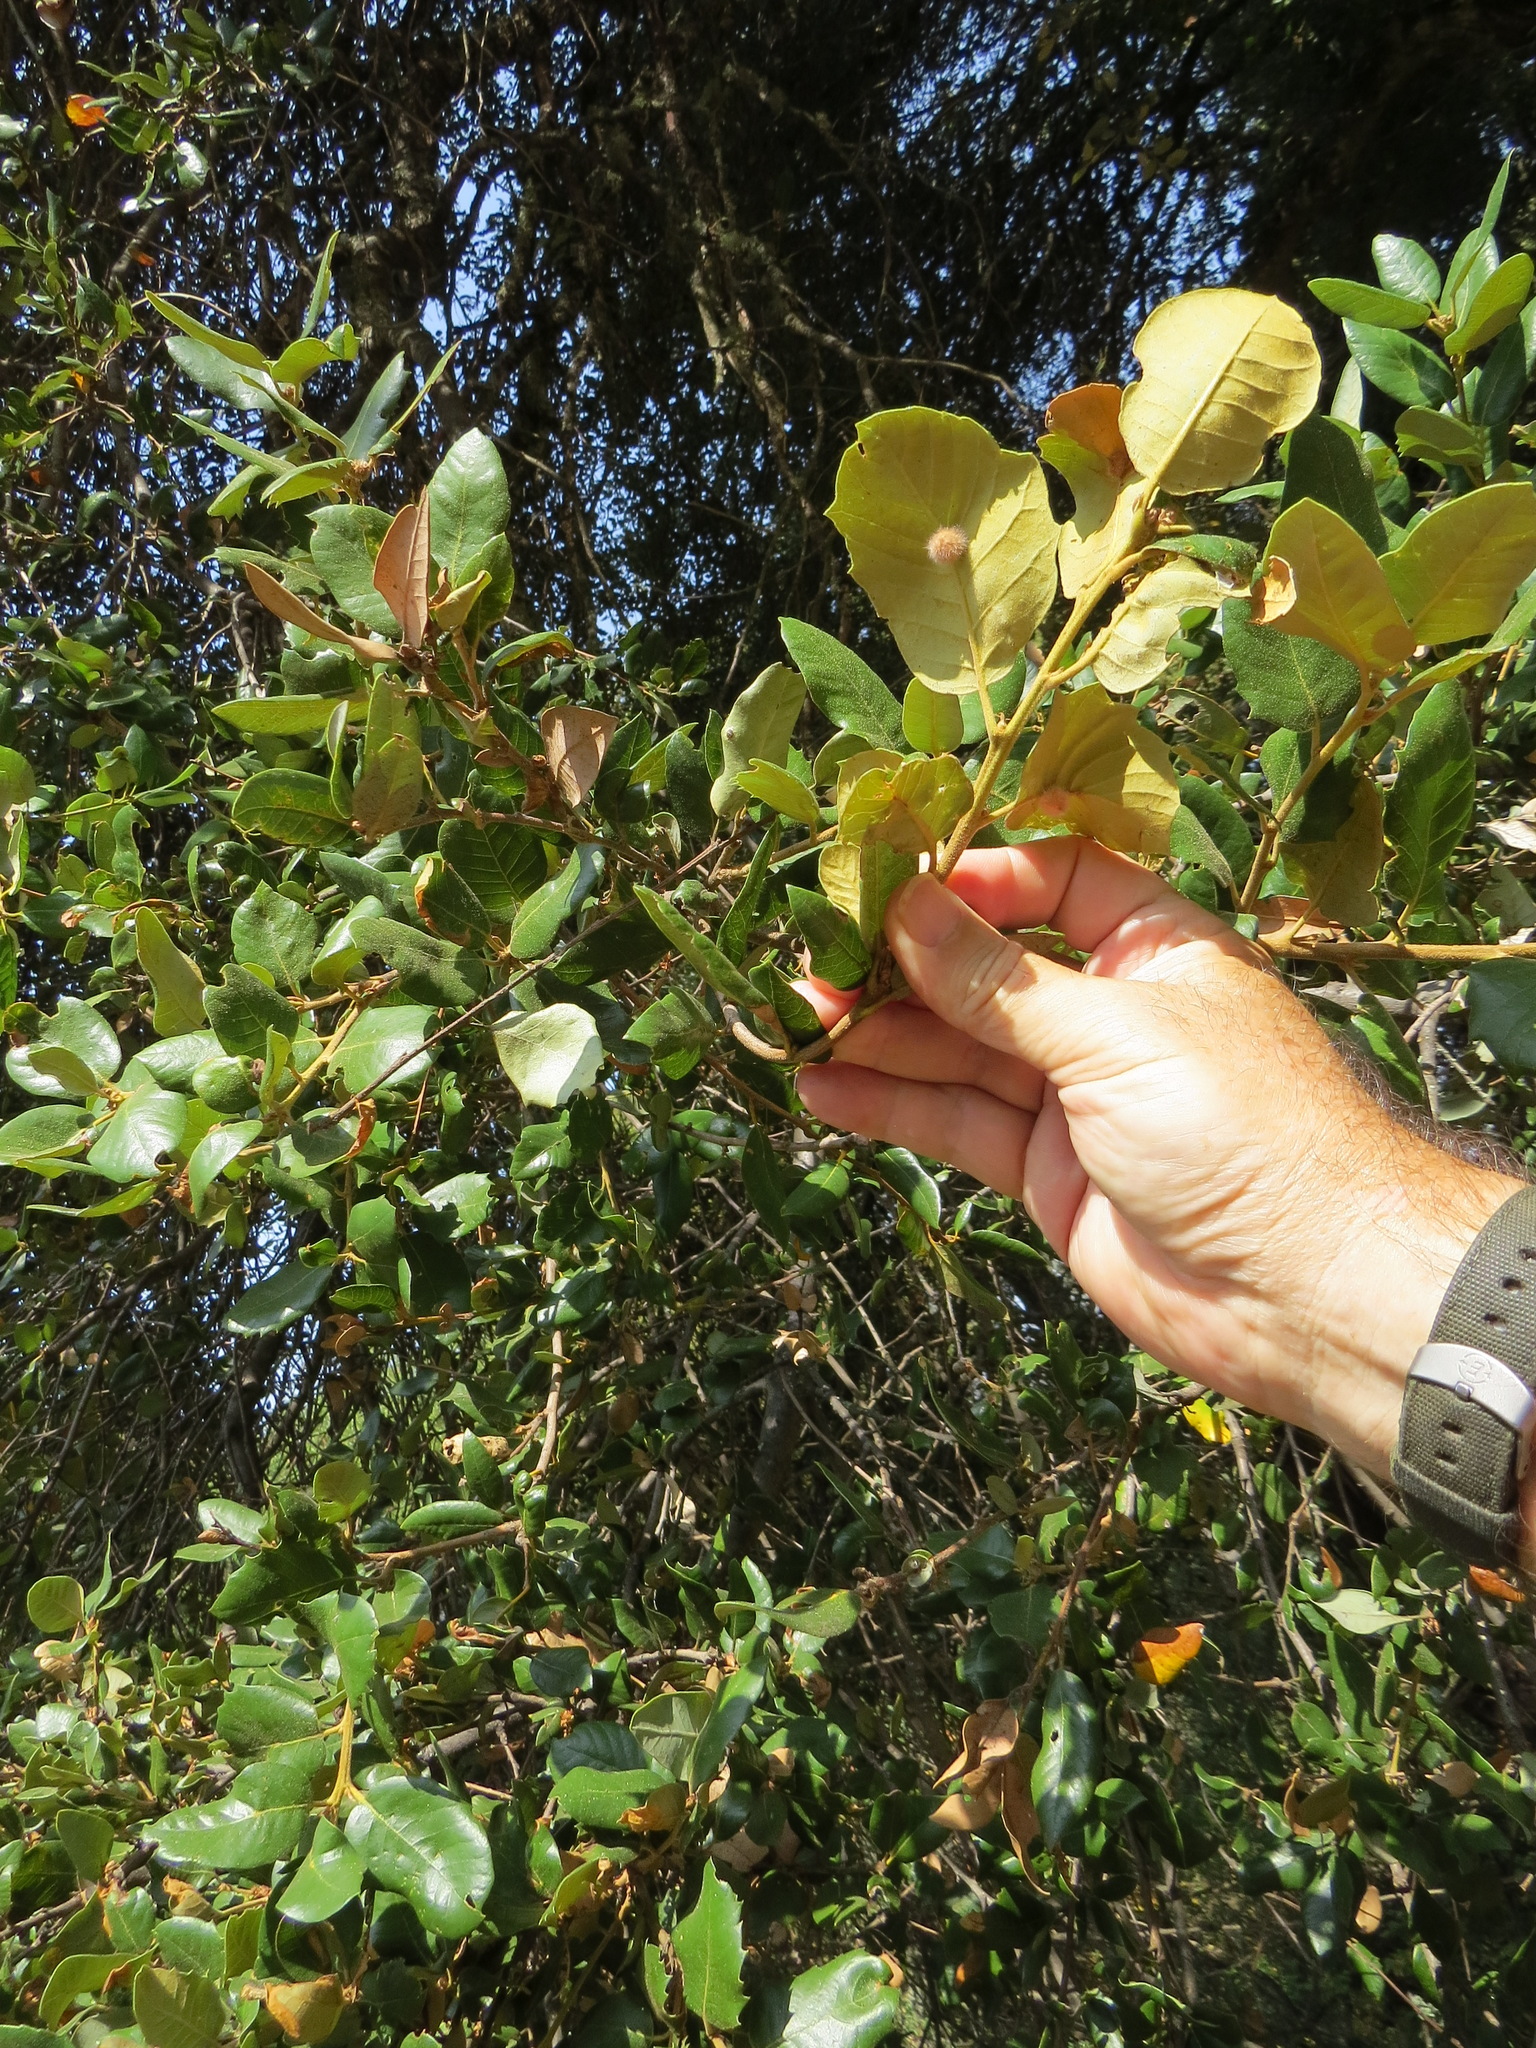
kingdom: Animalia
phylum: Arthropoda
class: Insecta
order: Hymenoptera
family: Cynipidae
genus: Disholandricus
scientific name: Disholandricus
